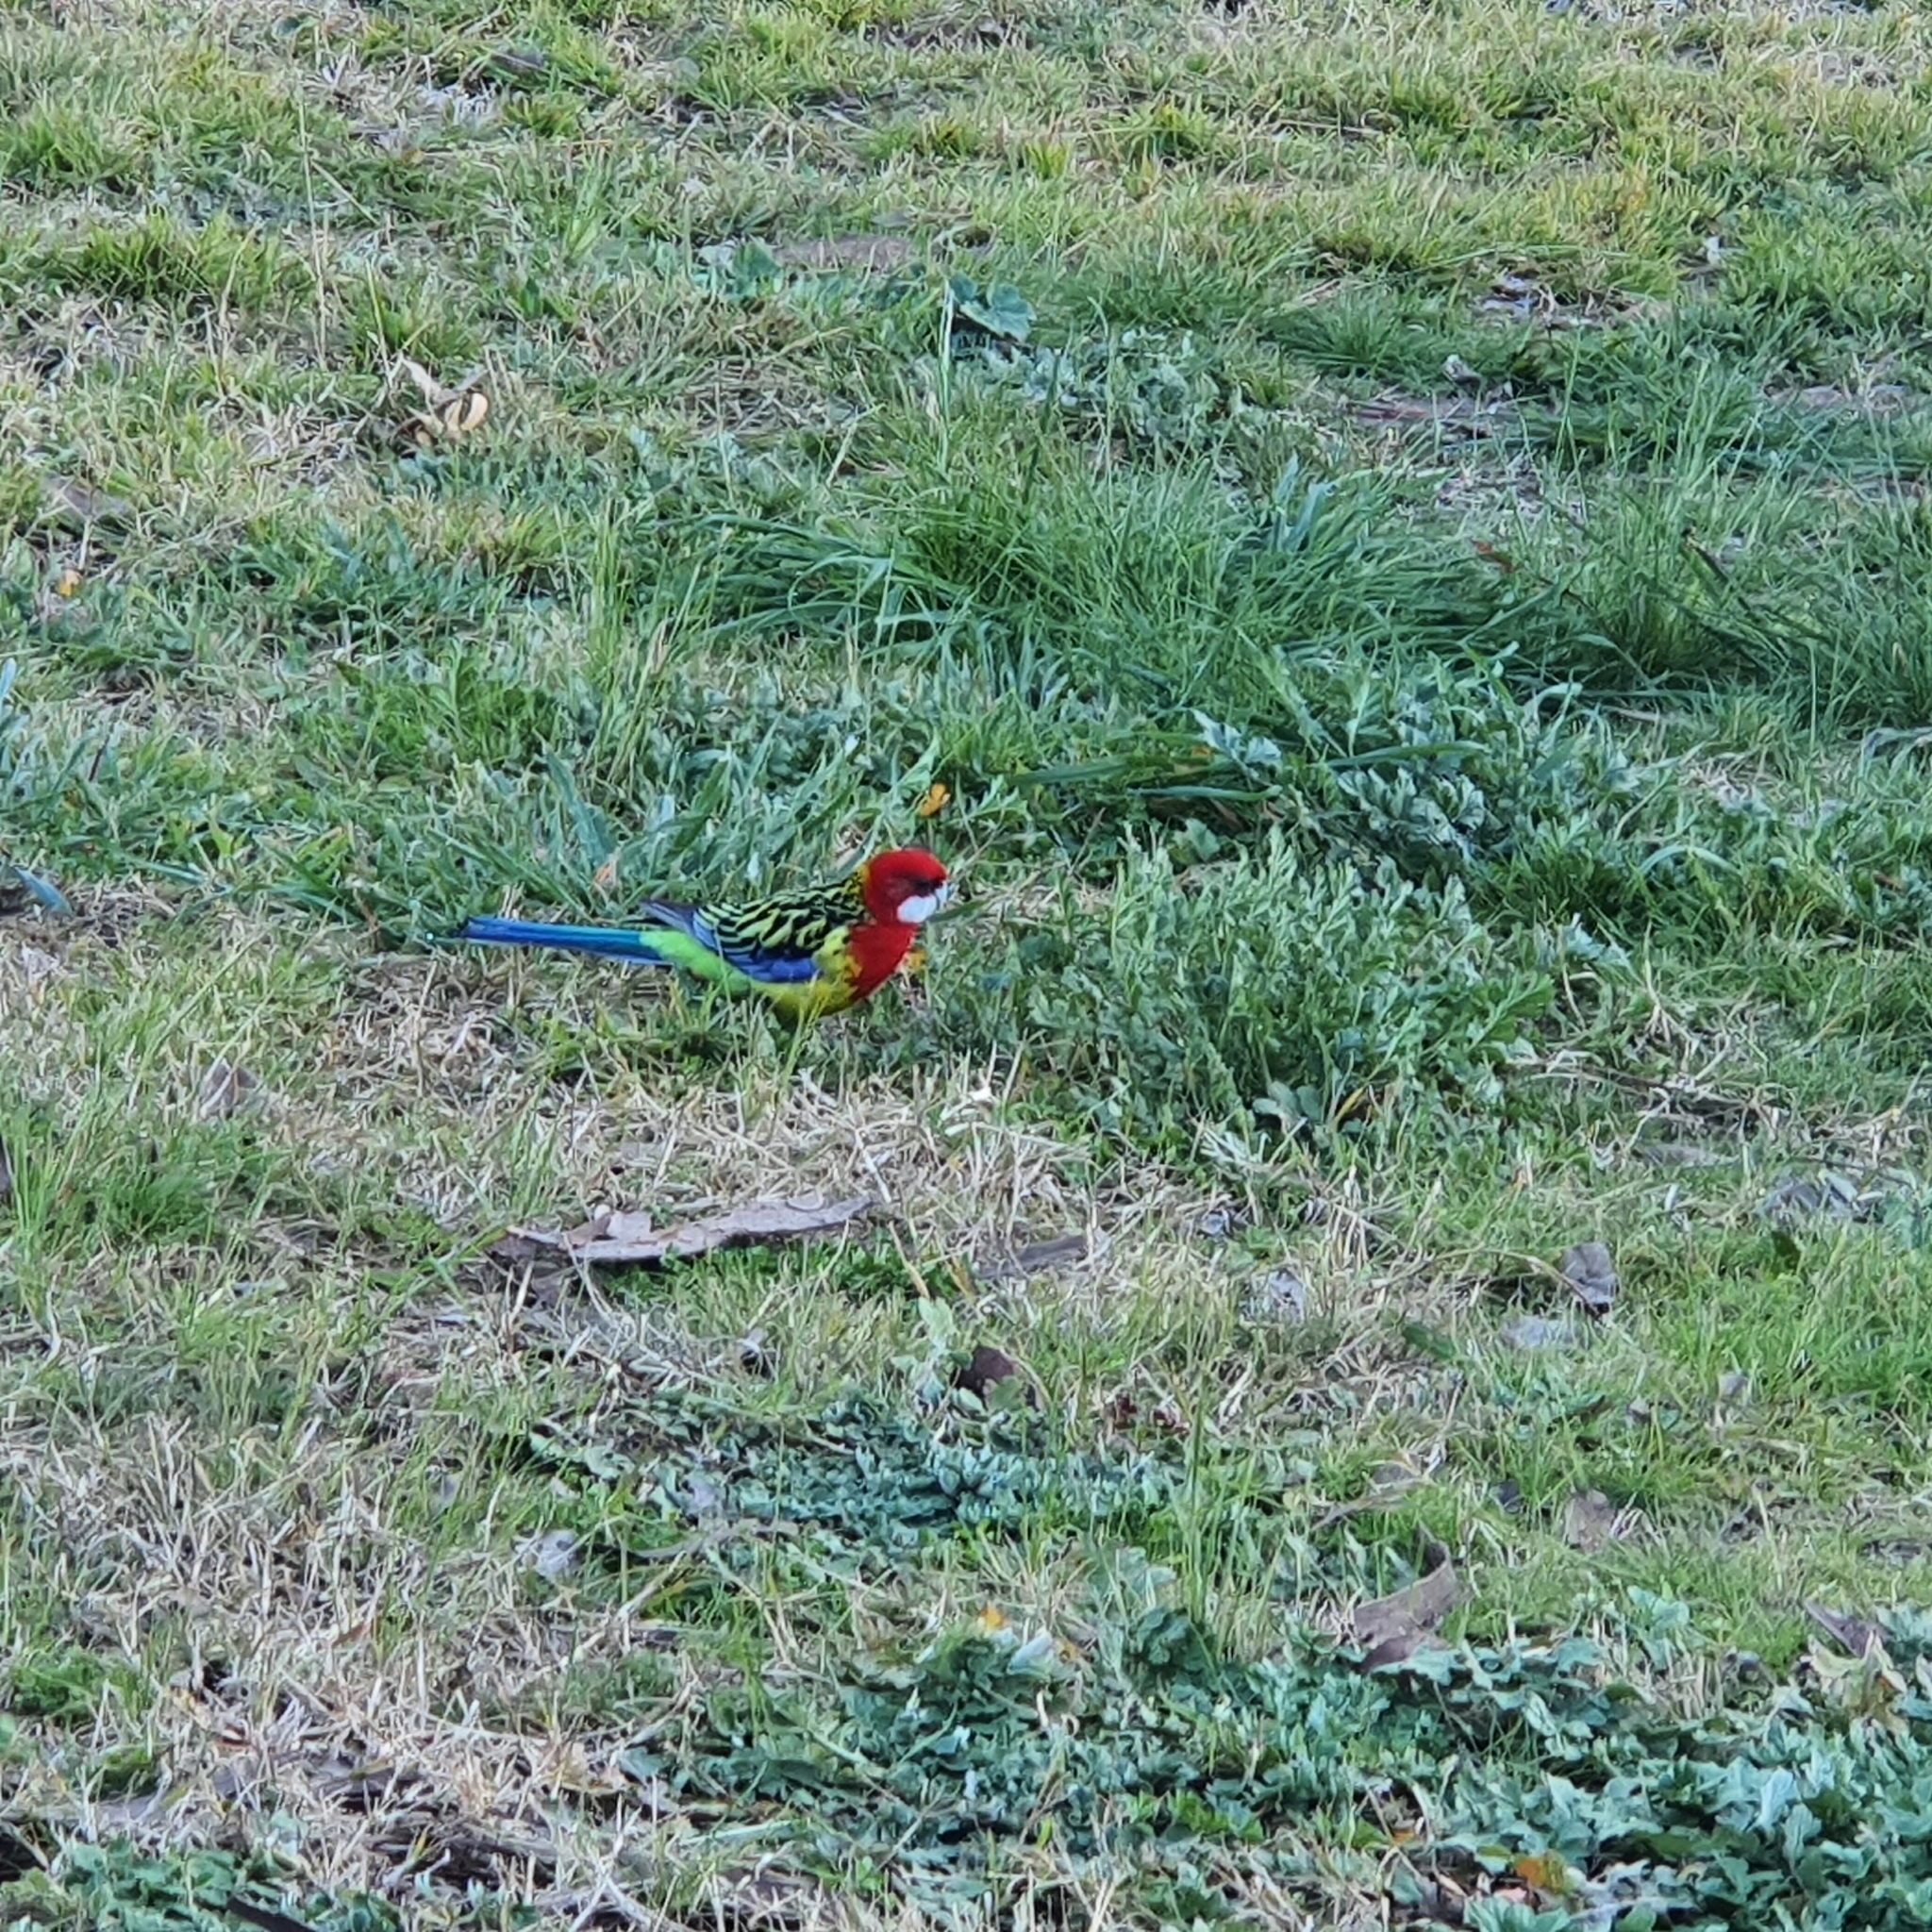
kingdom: Animalia
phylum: Chordata
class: Aves
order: Psittaciformes
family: Psittacidae
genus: Platycercus
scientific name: Platycercus eximius
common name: Eastern rosella
